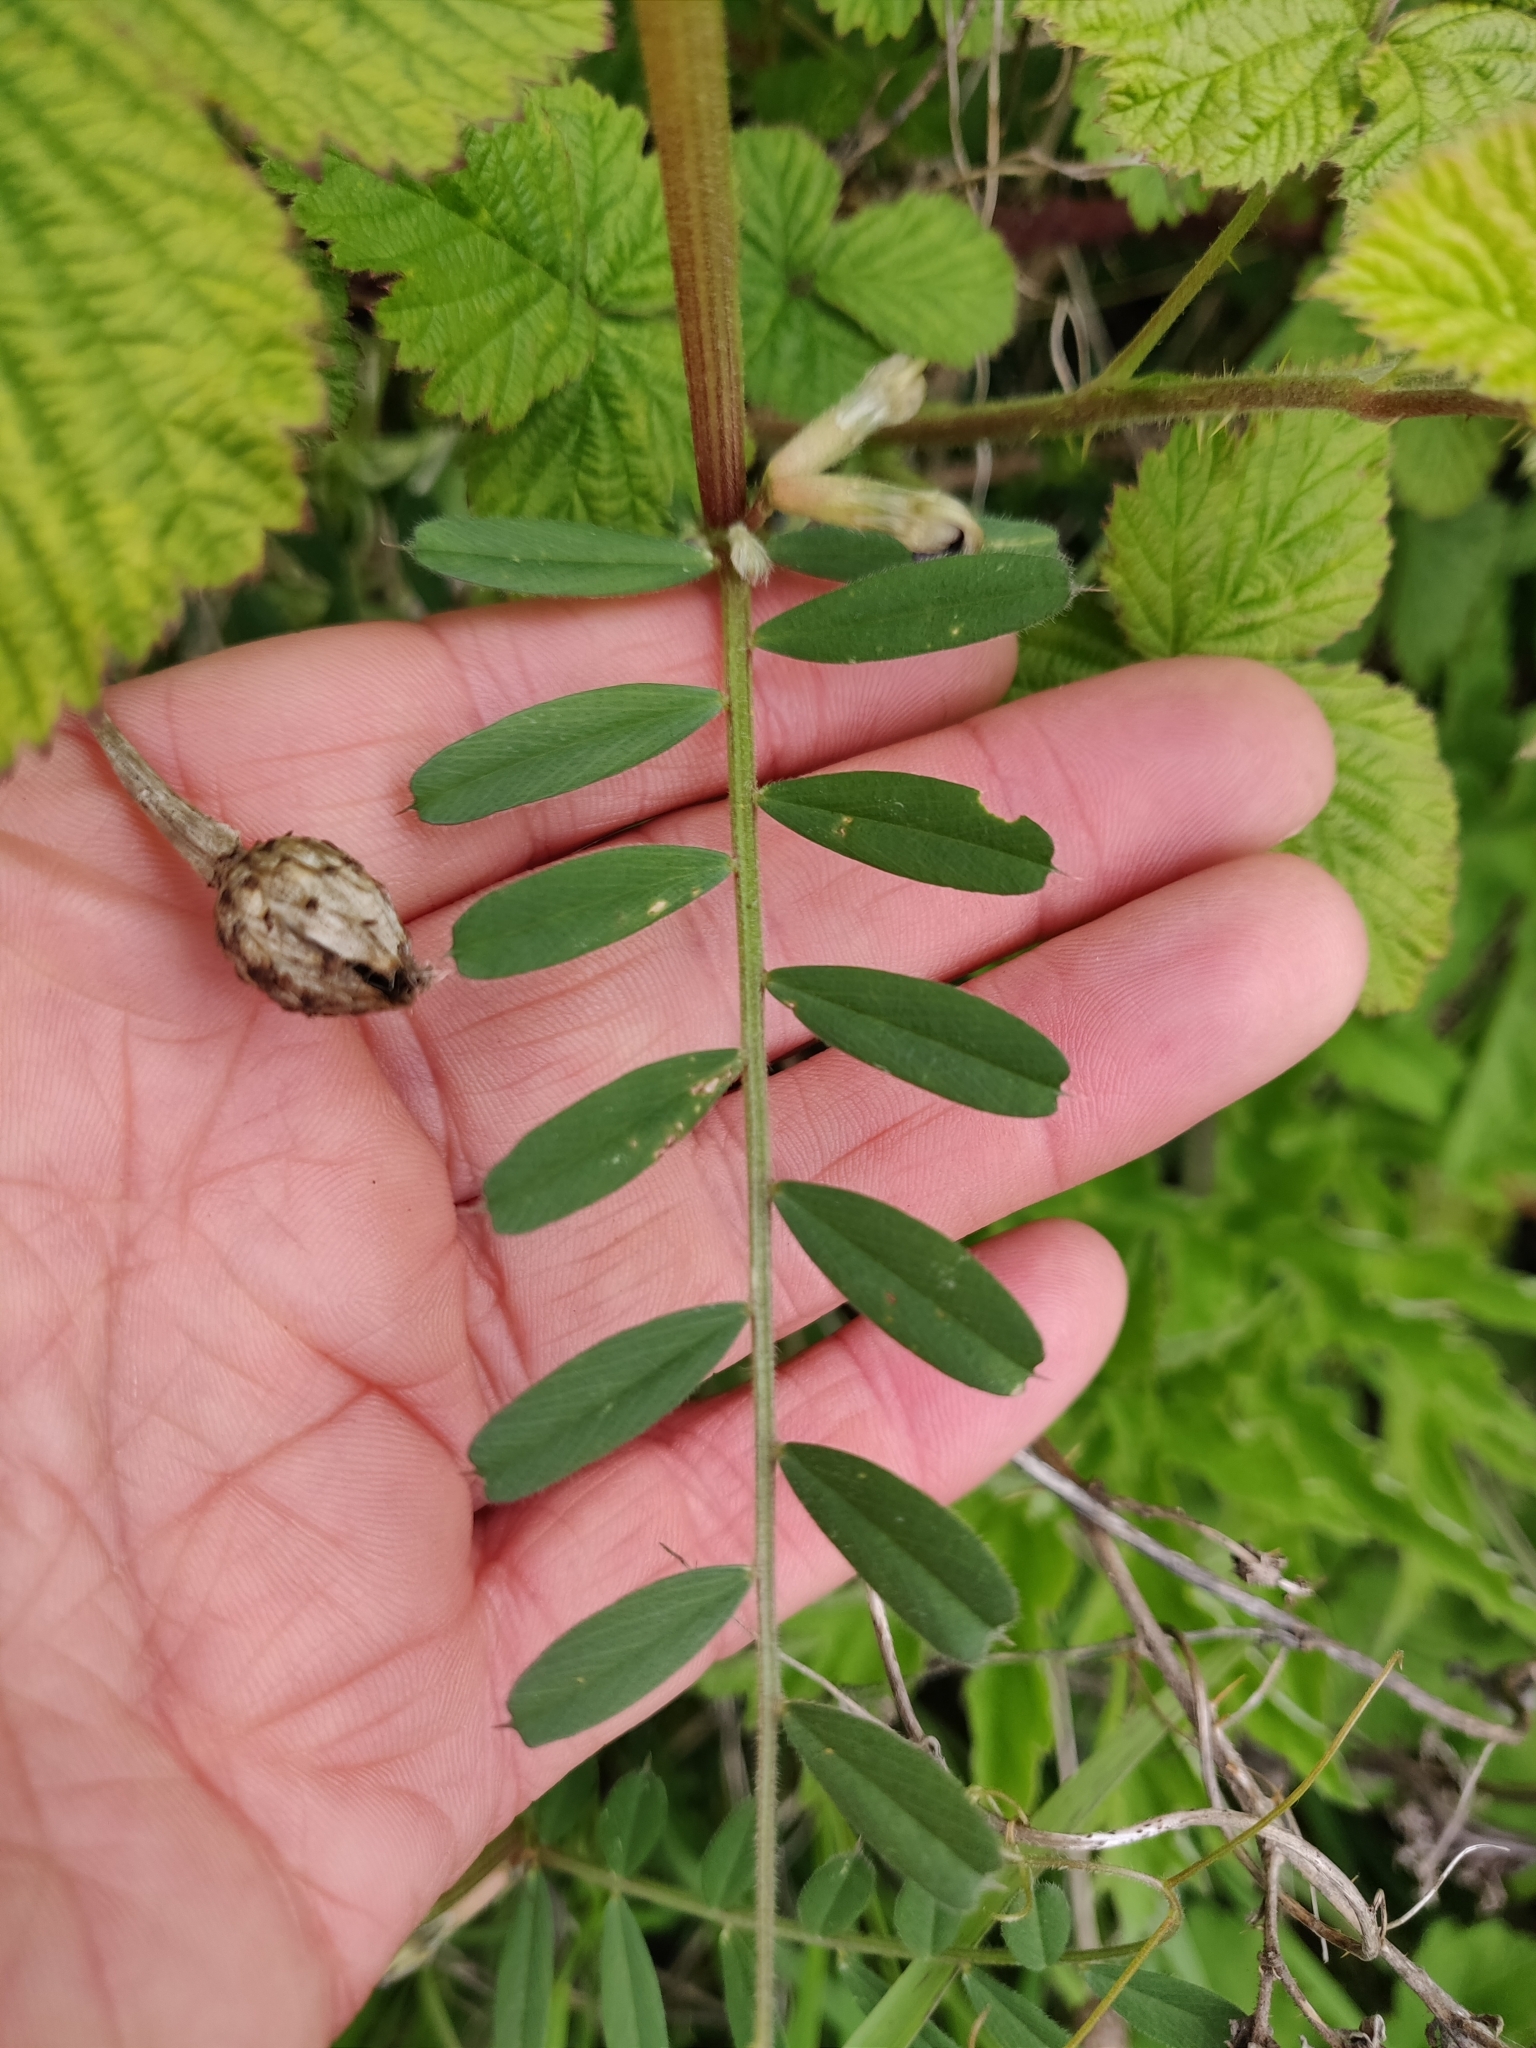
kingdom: Plantae
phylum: Tracheophyta
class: Magnoliopsida
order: Fabales
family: Fabaceae
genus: Vicia
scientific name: Vicia sativa
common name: Garden vetch
